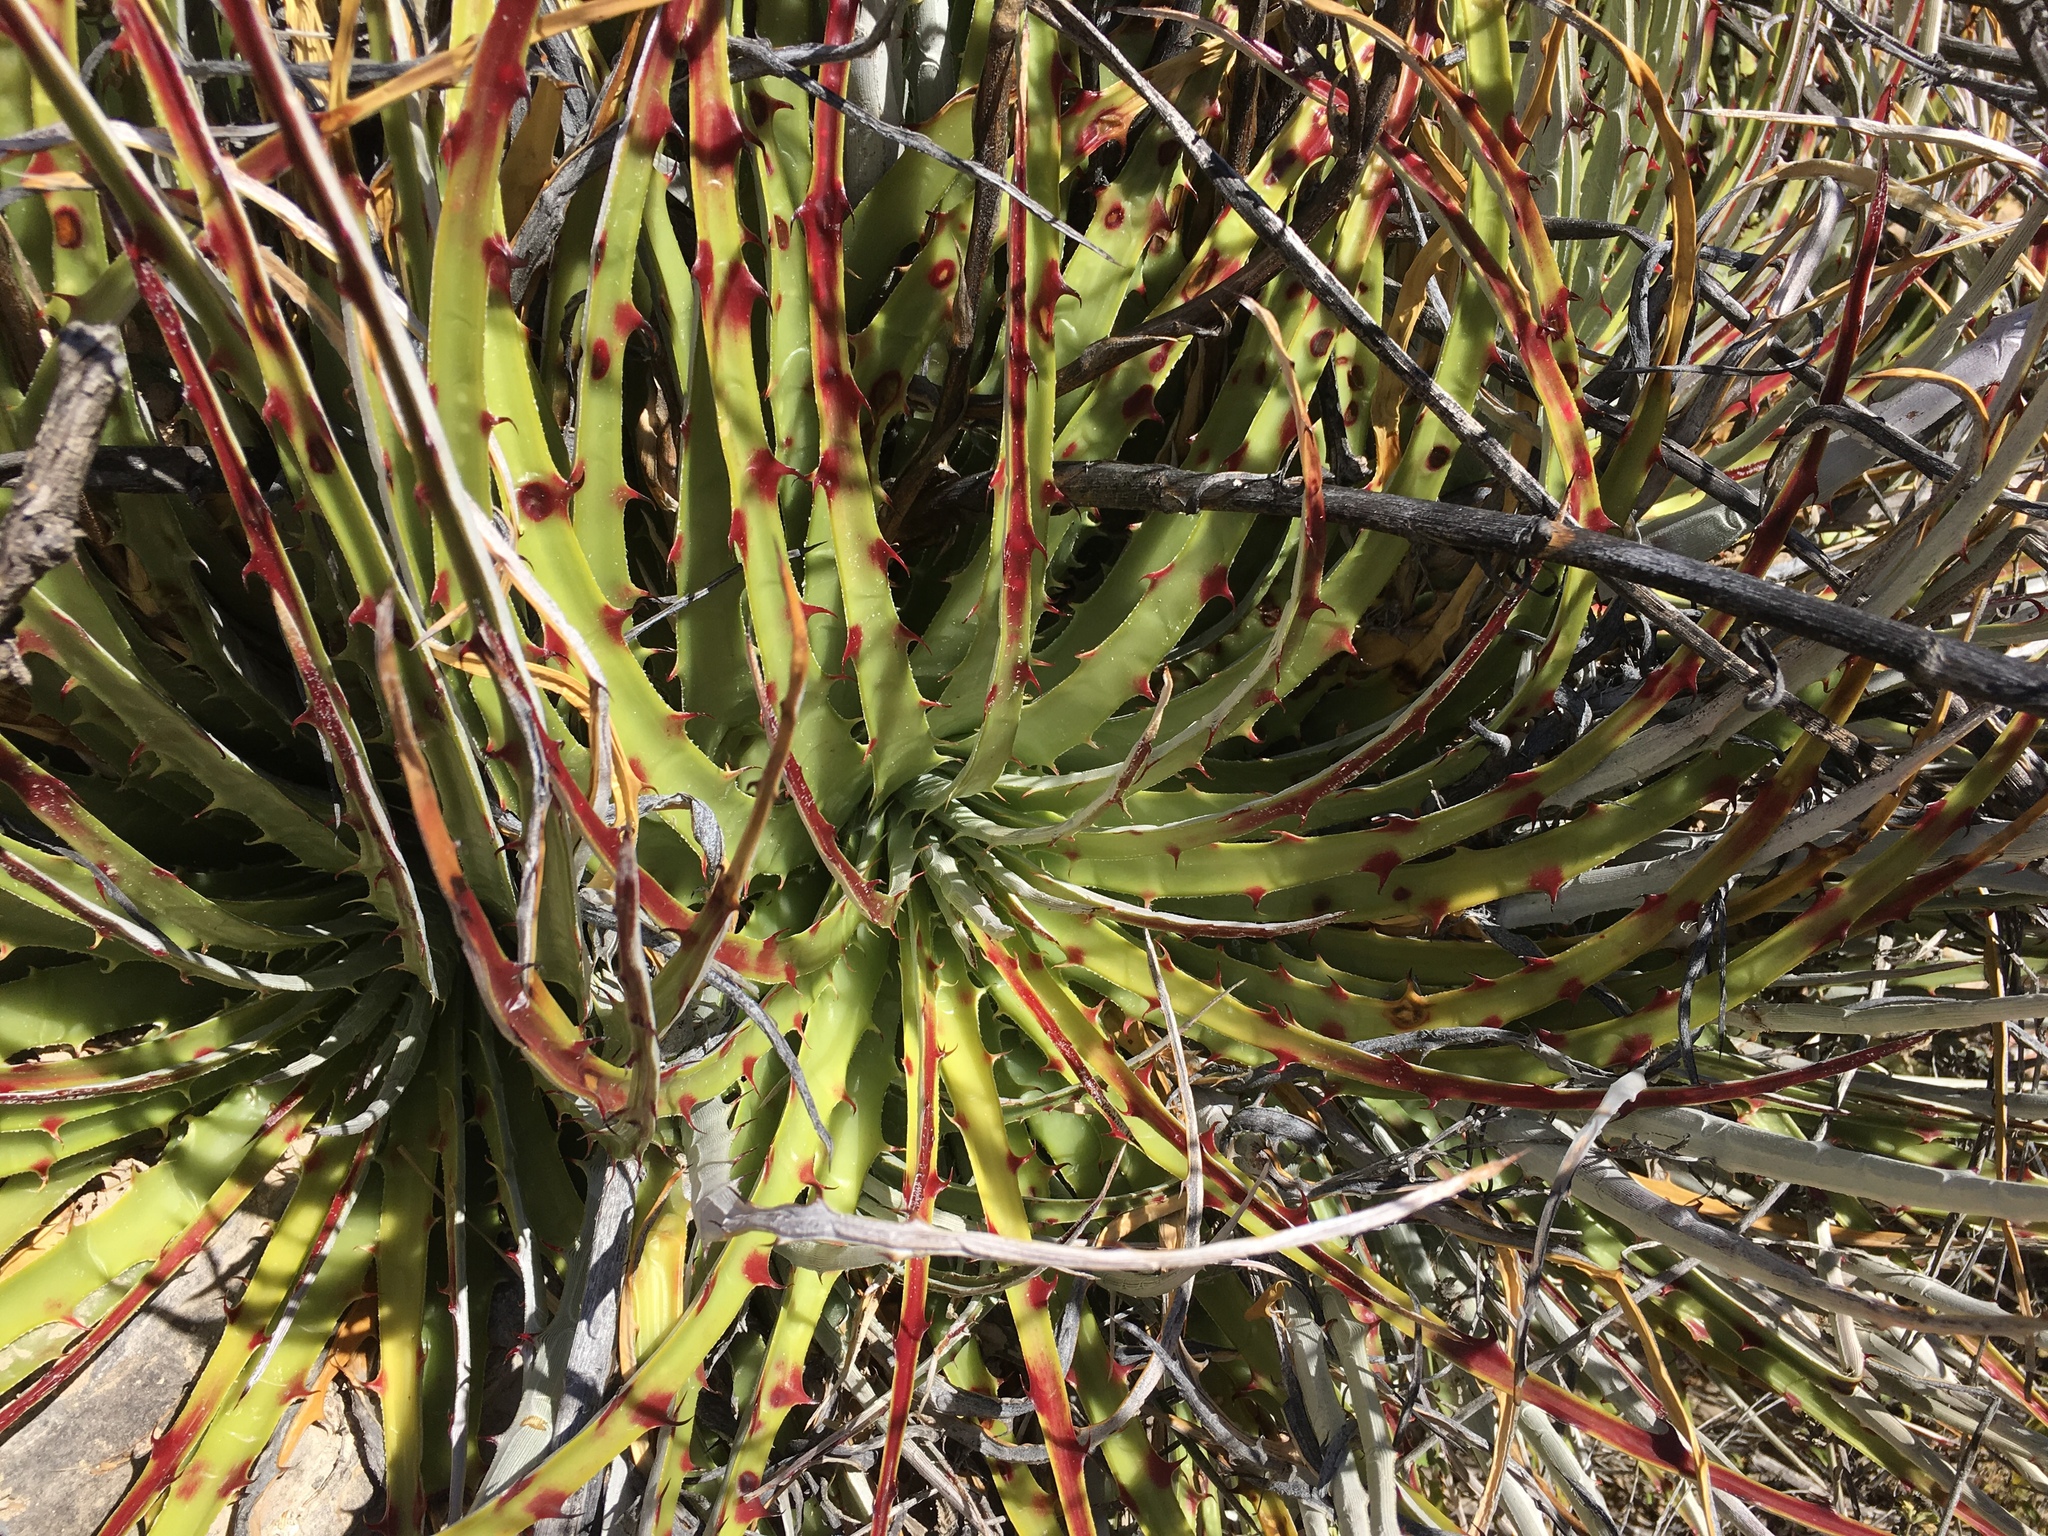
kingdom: Plantae
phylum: Tracheophyta
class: Liliopsida
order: Poales
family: Bromeliaceae
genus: Hechtia
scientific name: Hechtia texensis
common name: False agave
